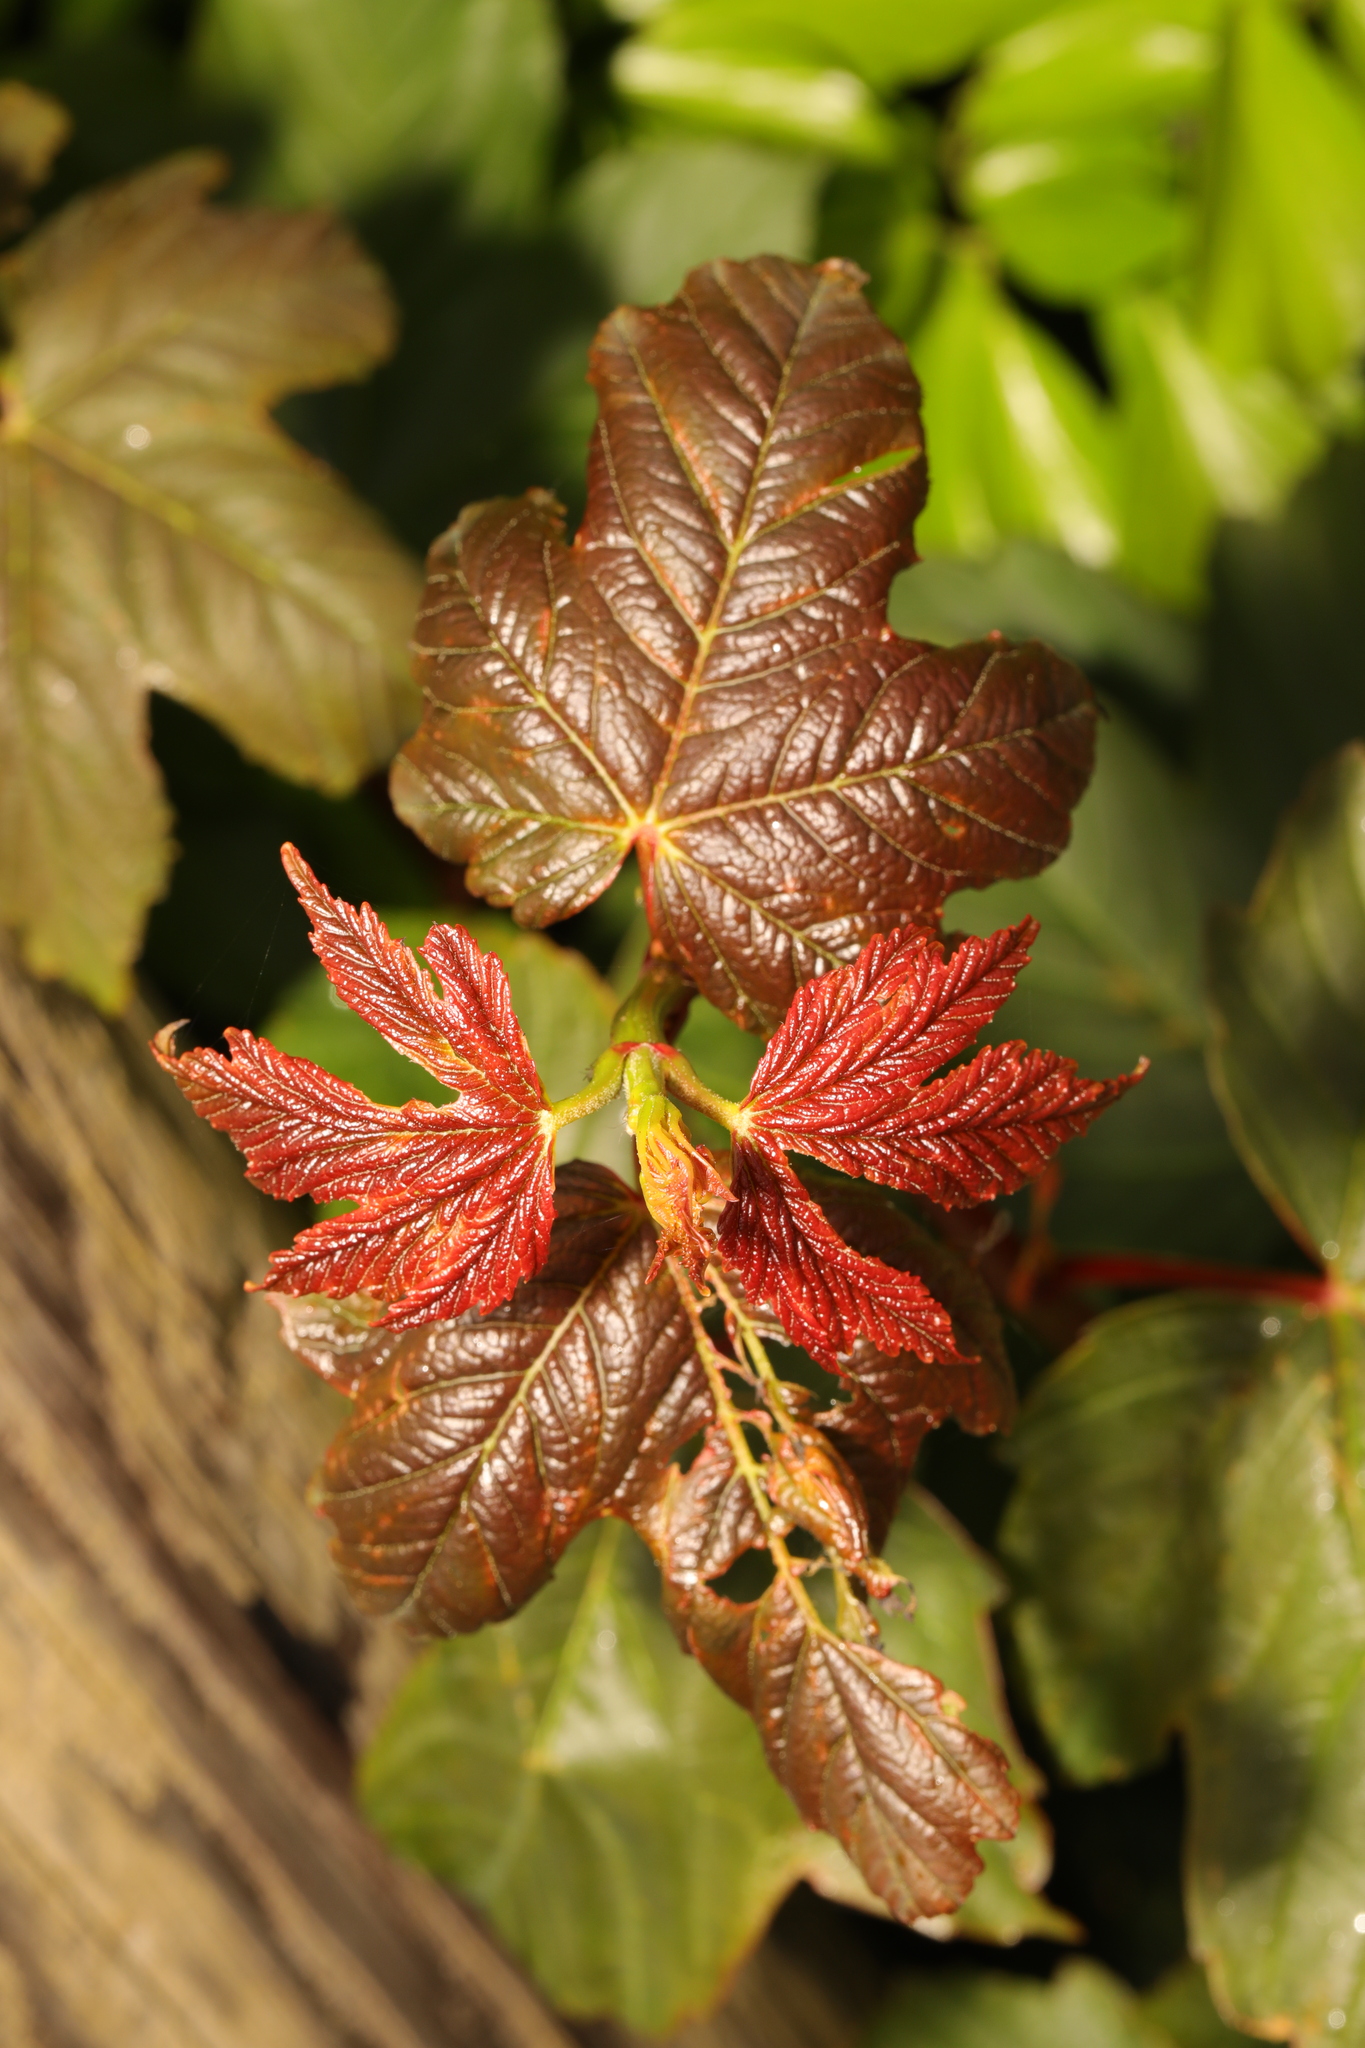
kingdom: Plantae
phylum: Tracheophyta
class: Magnoliopsida
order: Sapindales
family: Sapindaceae
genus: Acer
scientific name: Acer pseudoplatanus
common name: Sycamore
